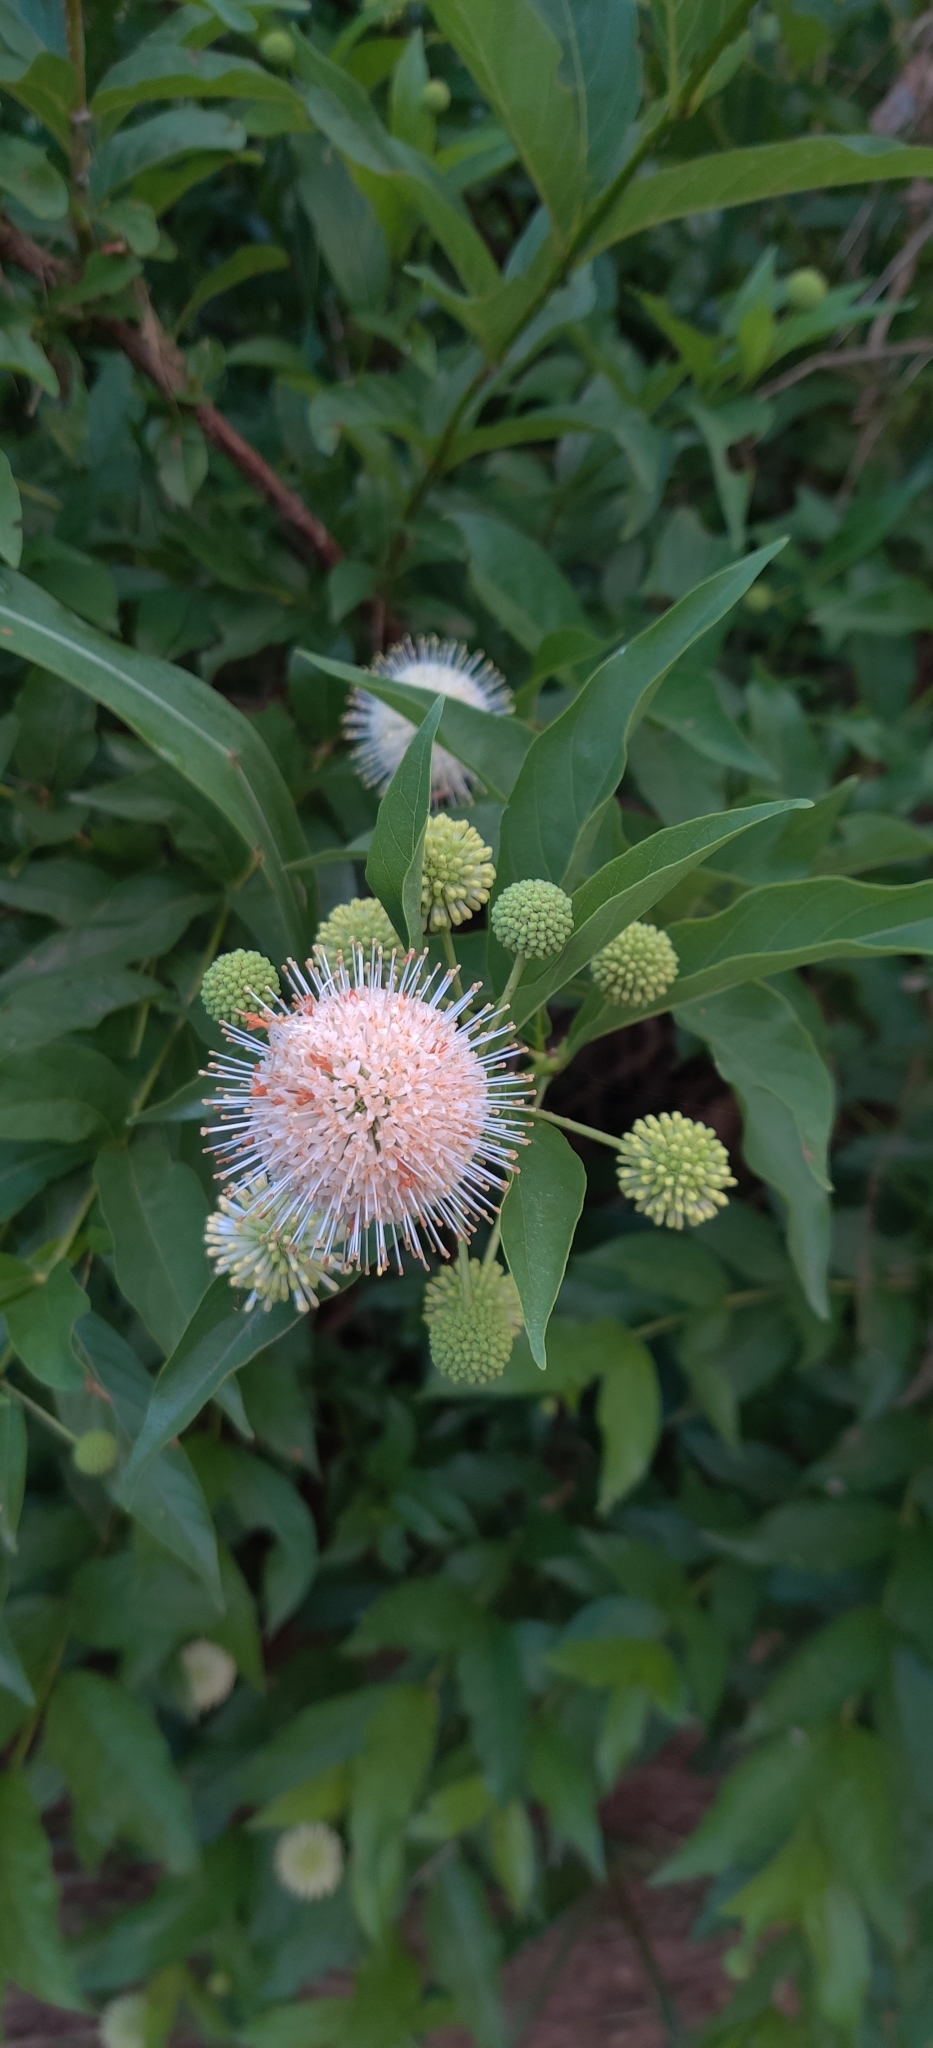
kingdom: Plantae
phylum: Tracheophyta
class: Magnoliopsida
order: Gentianales
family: Rubiaceae
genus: Cephalanthus
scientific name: Cephalanthus occidentalis
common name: Button-willow
